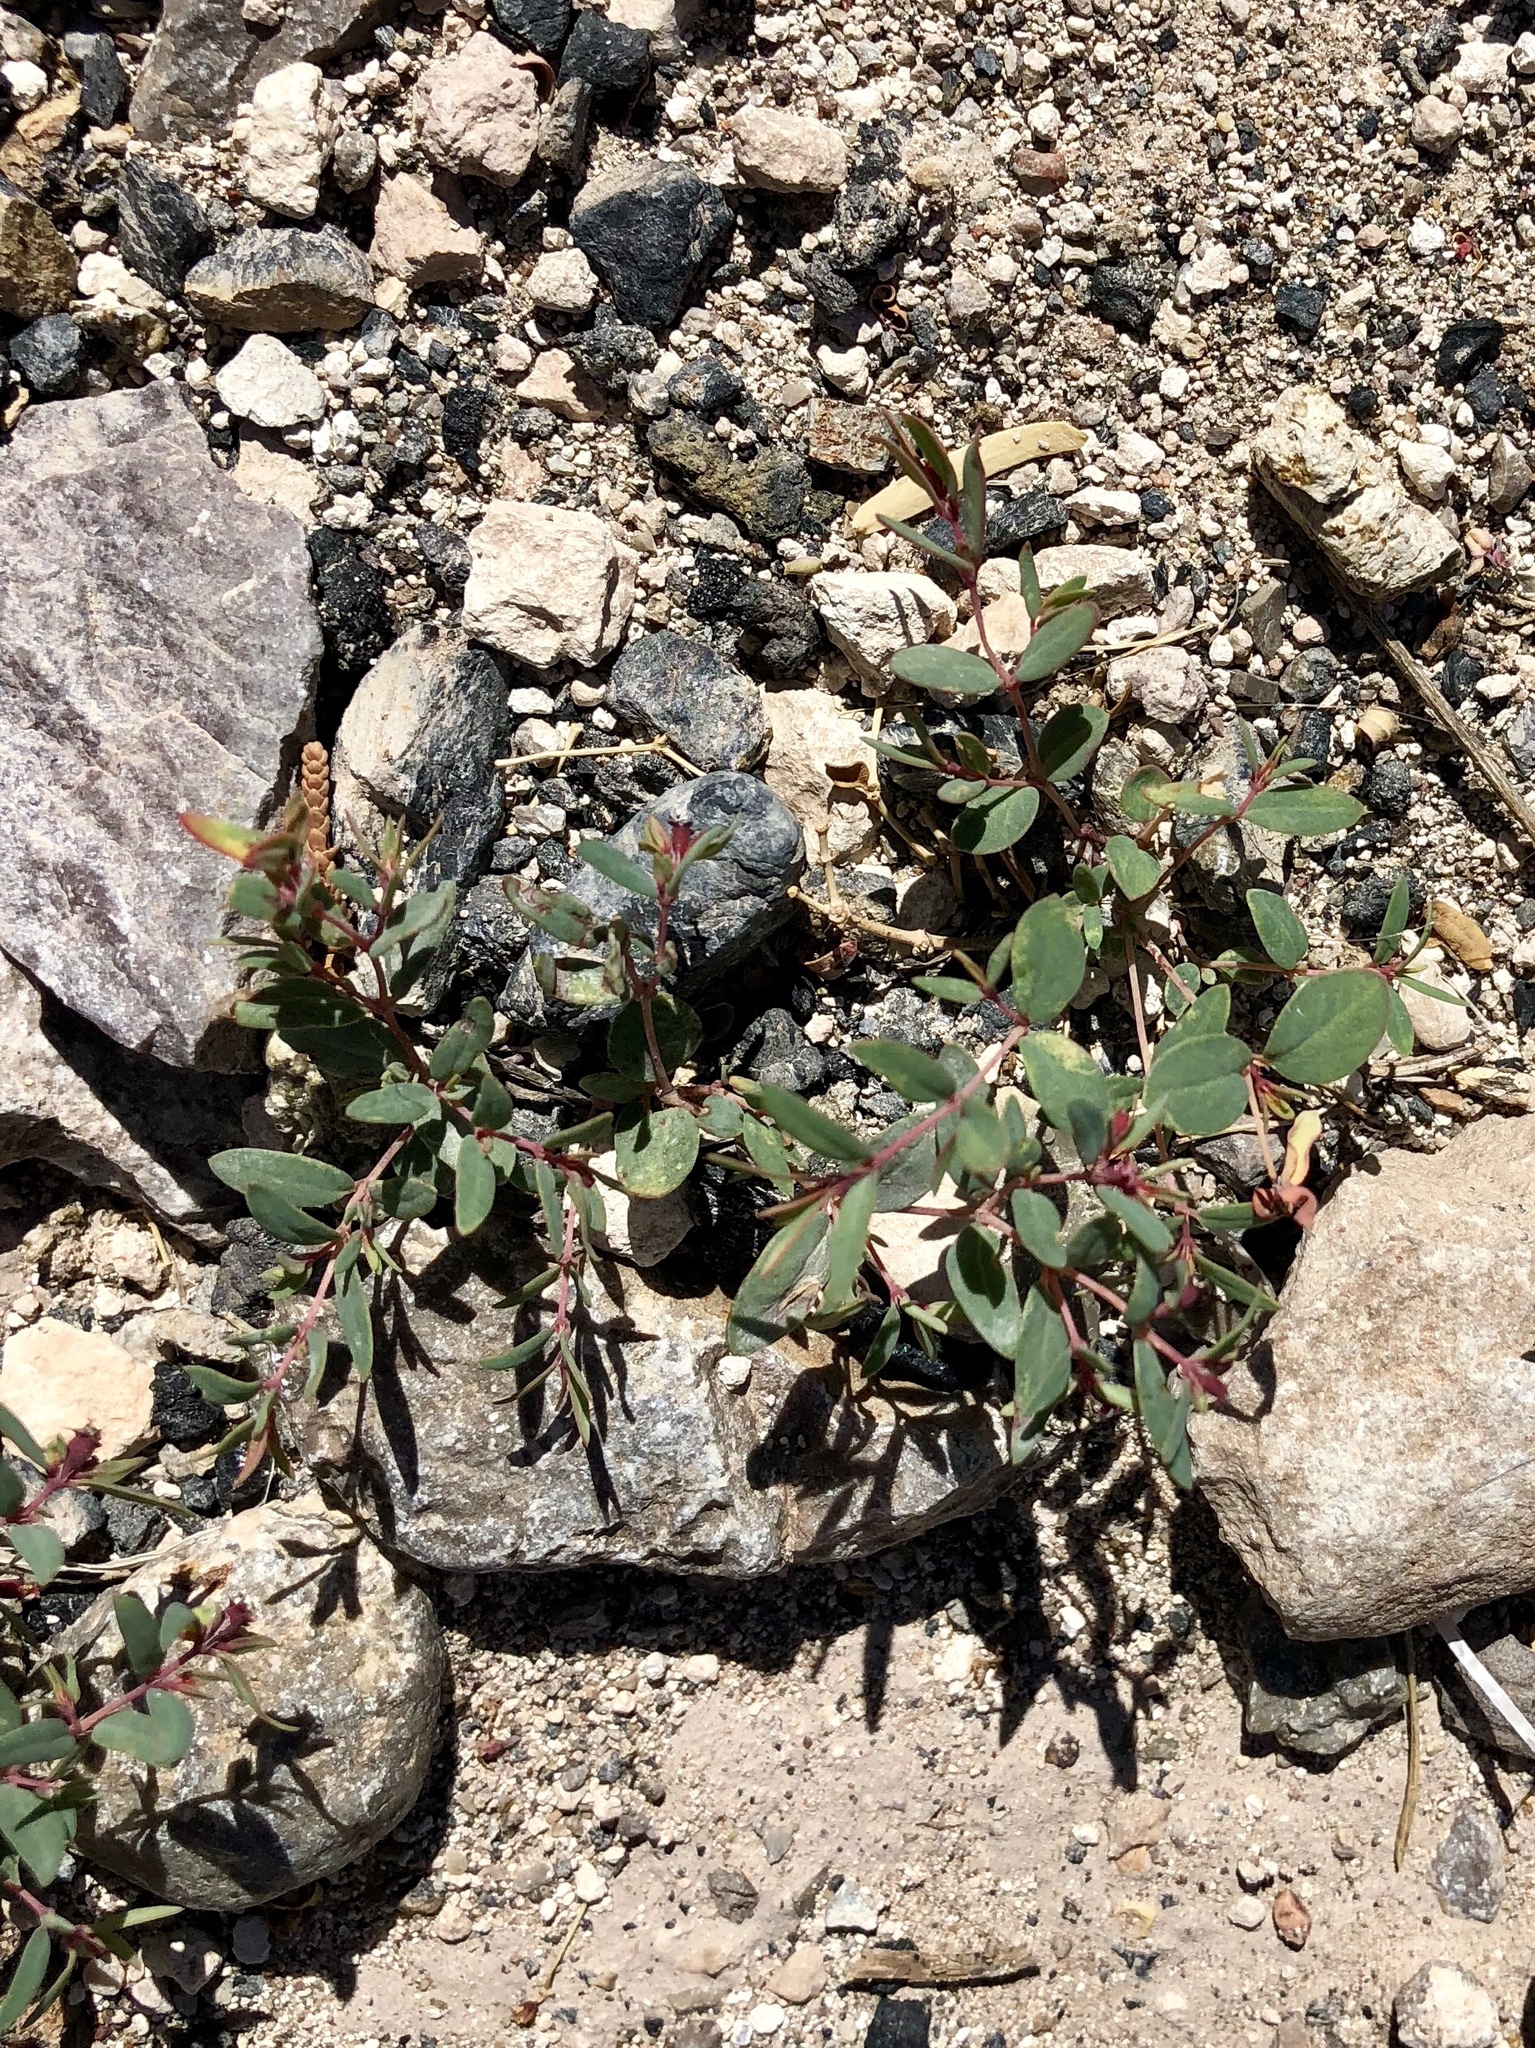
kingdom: Plantae
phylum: Tracheophyta
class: Magnoliopsida
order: Malpighiales
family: Euphorbiaceae
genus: Euphorbia
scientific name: Euphorbia chaetocalyx
